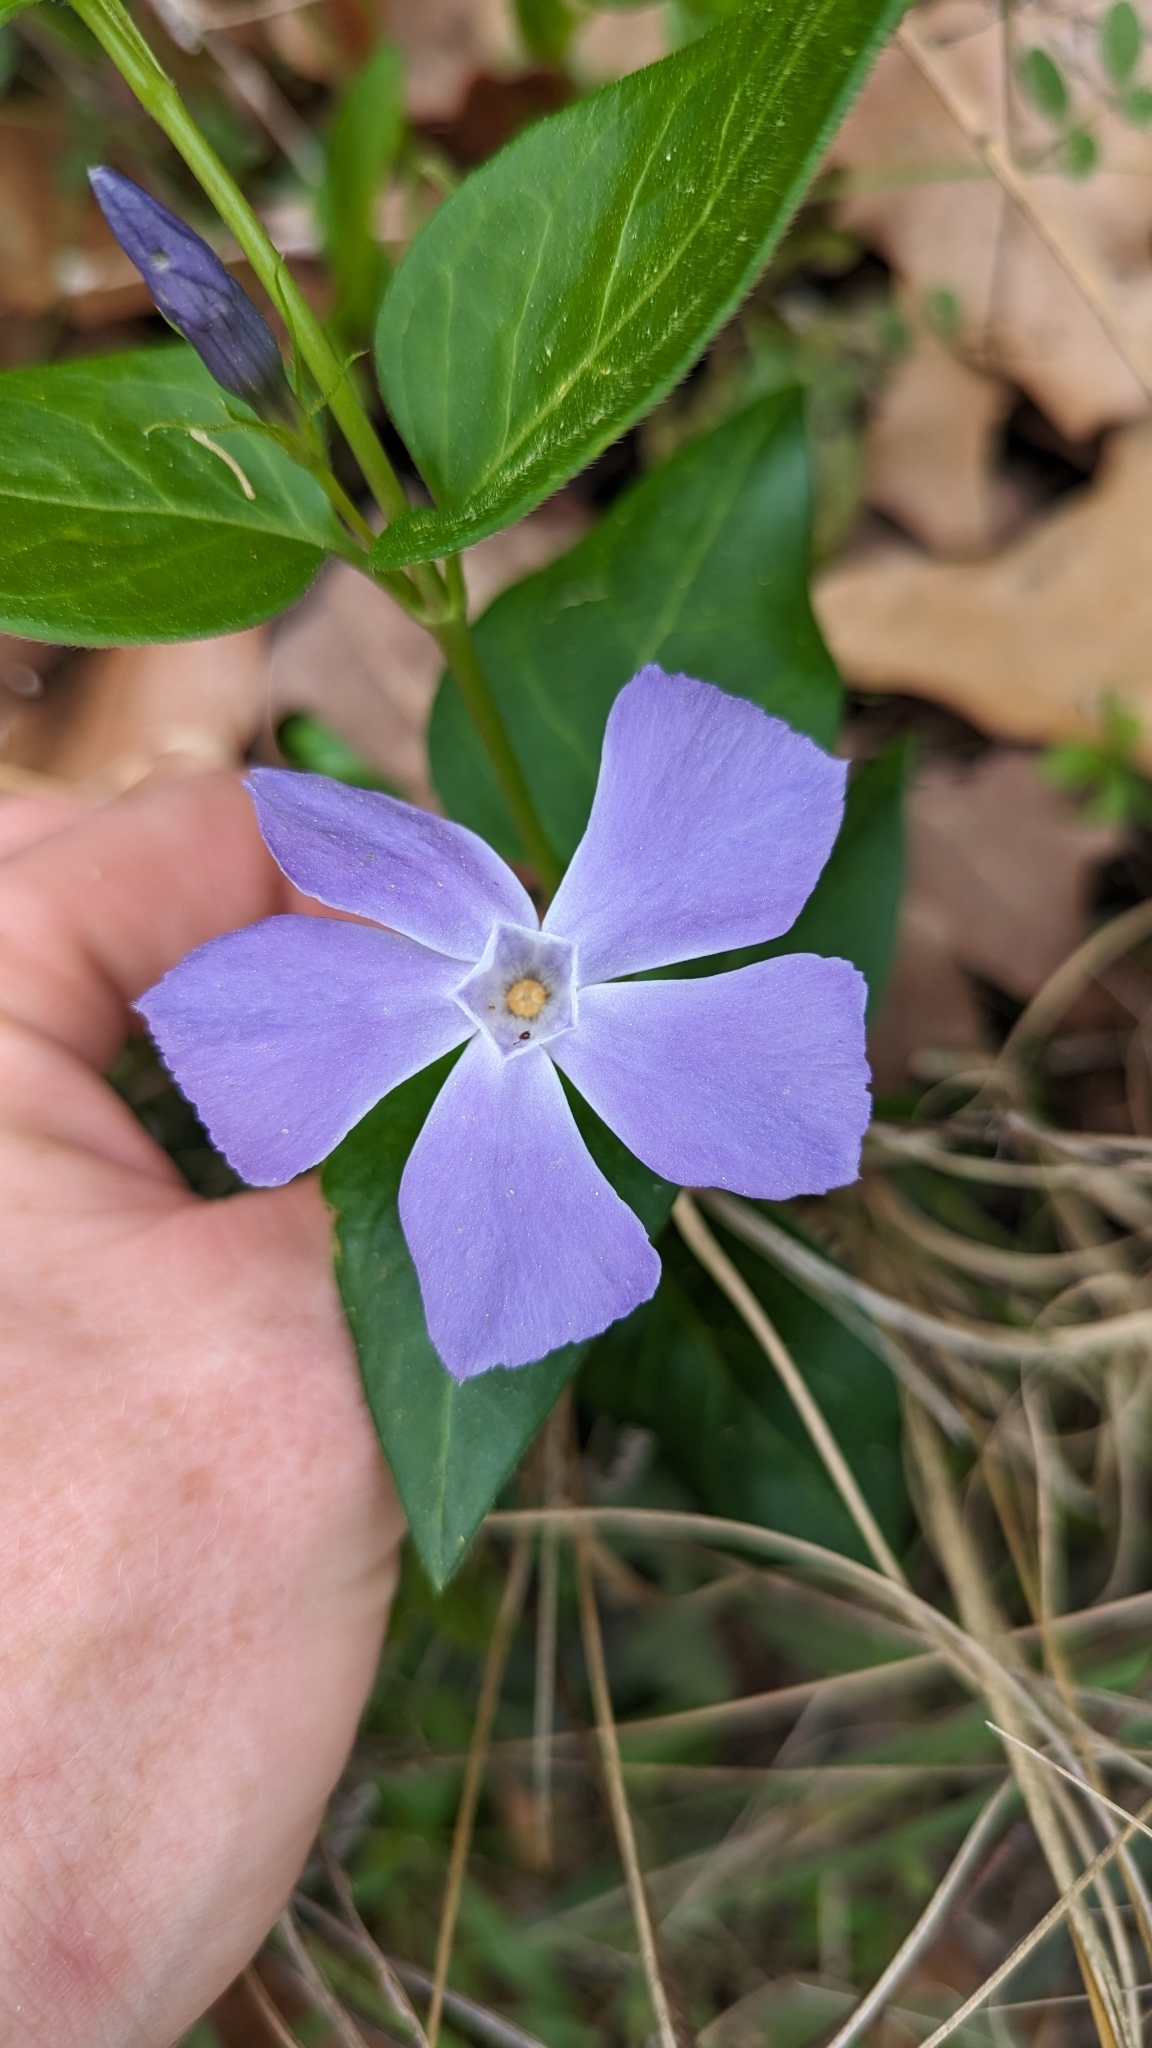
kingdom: Plantae
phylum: Tracheophyta
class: Magnoliopsida
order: Gentianales
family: Apocynaceae
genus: Vinca
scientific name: Vinca major
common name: Greater periwinkle
